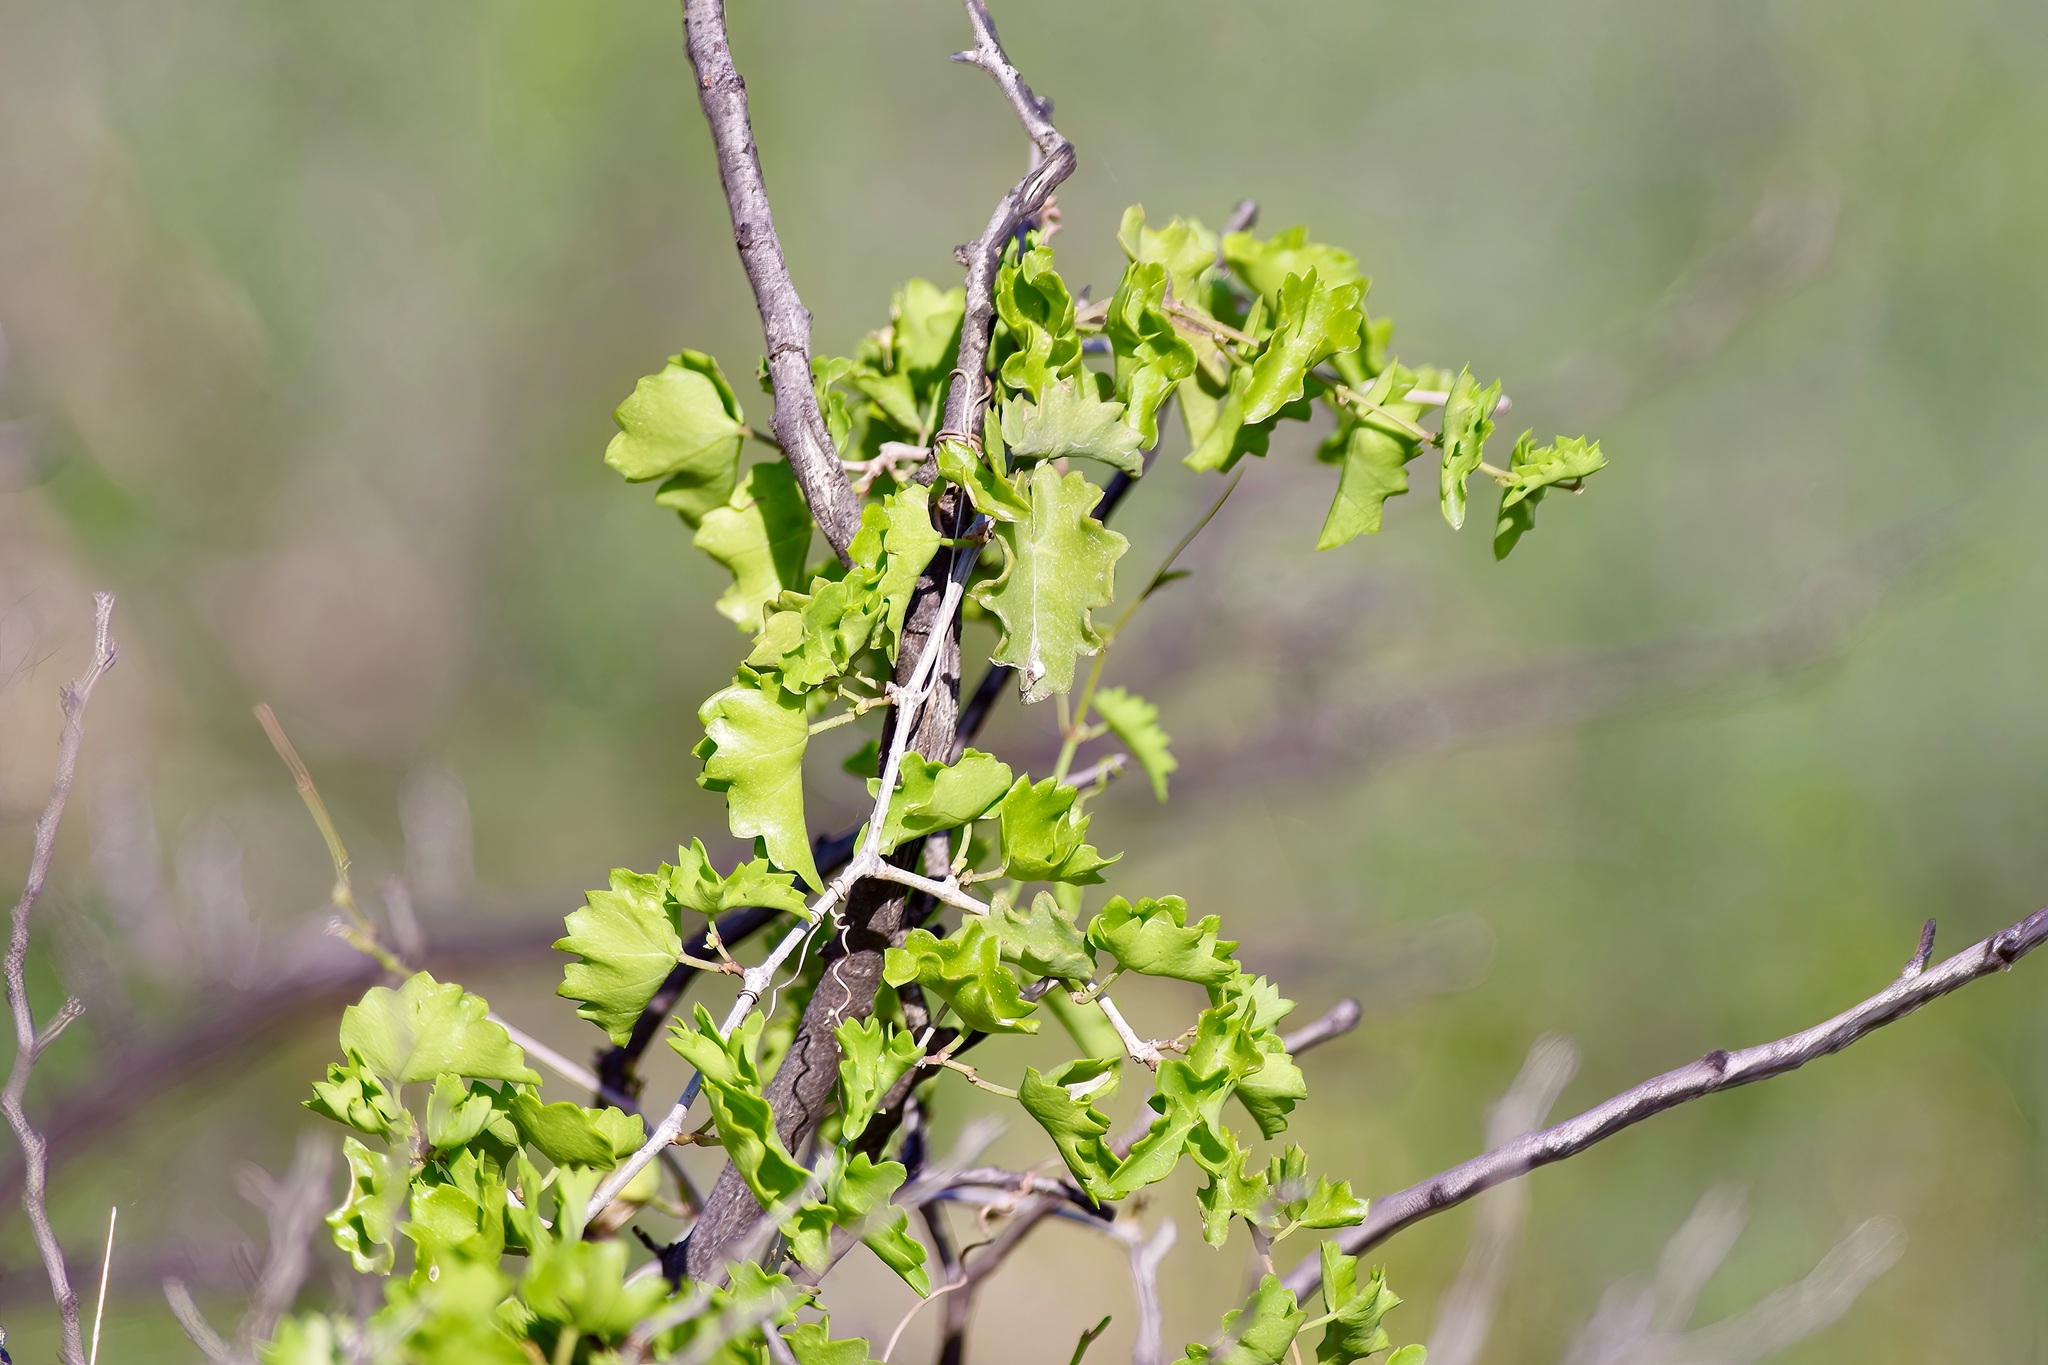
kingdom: Plantae
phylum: Tracheophyta
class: Magnoliopsida
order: Vitales
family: Vitaceae
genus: Cissus
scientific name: Cissus trifoliata
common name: Vine-sorrel
